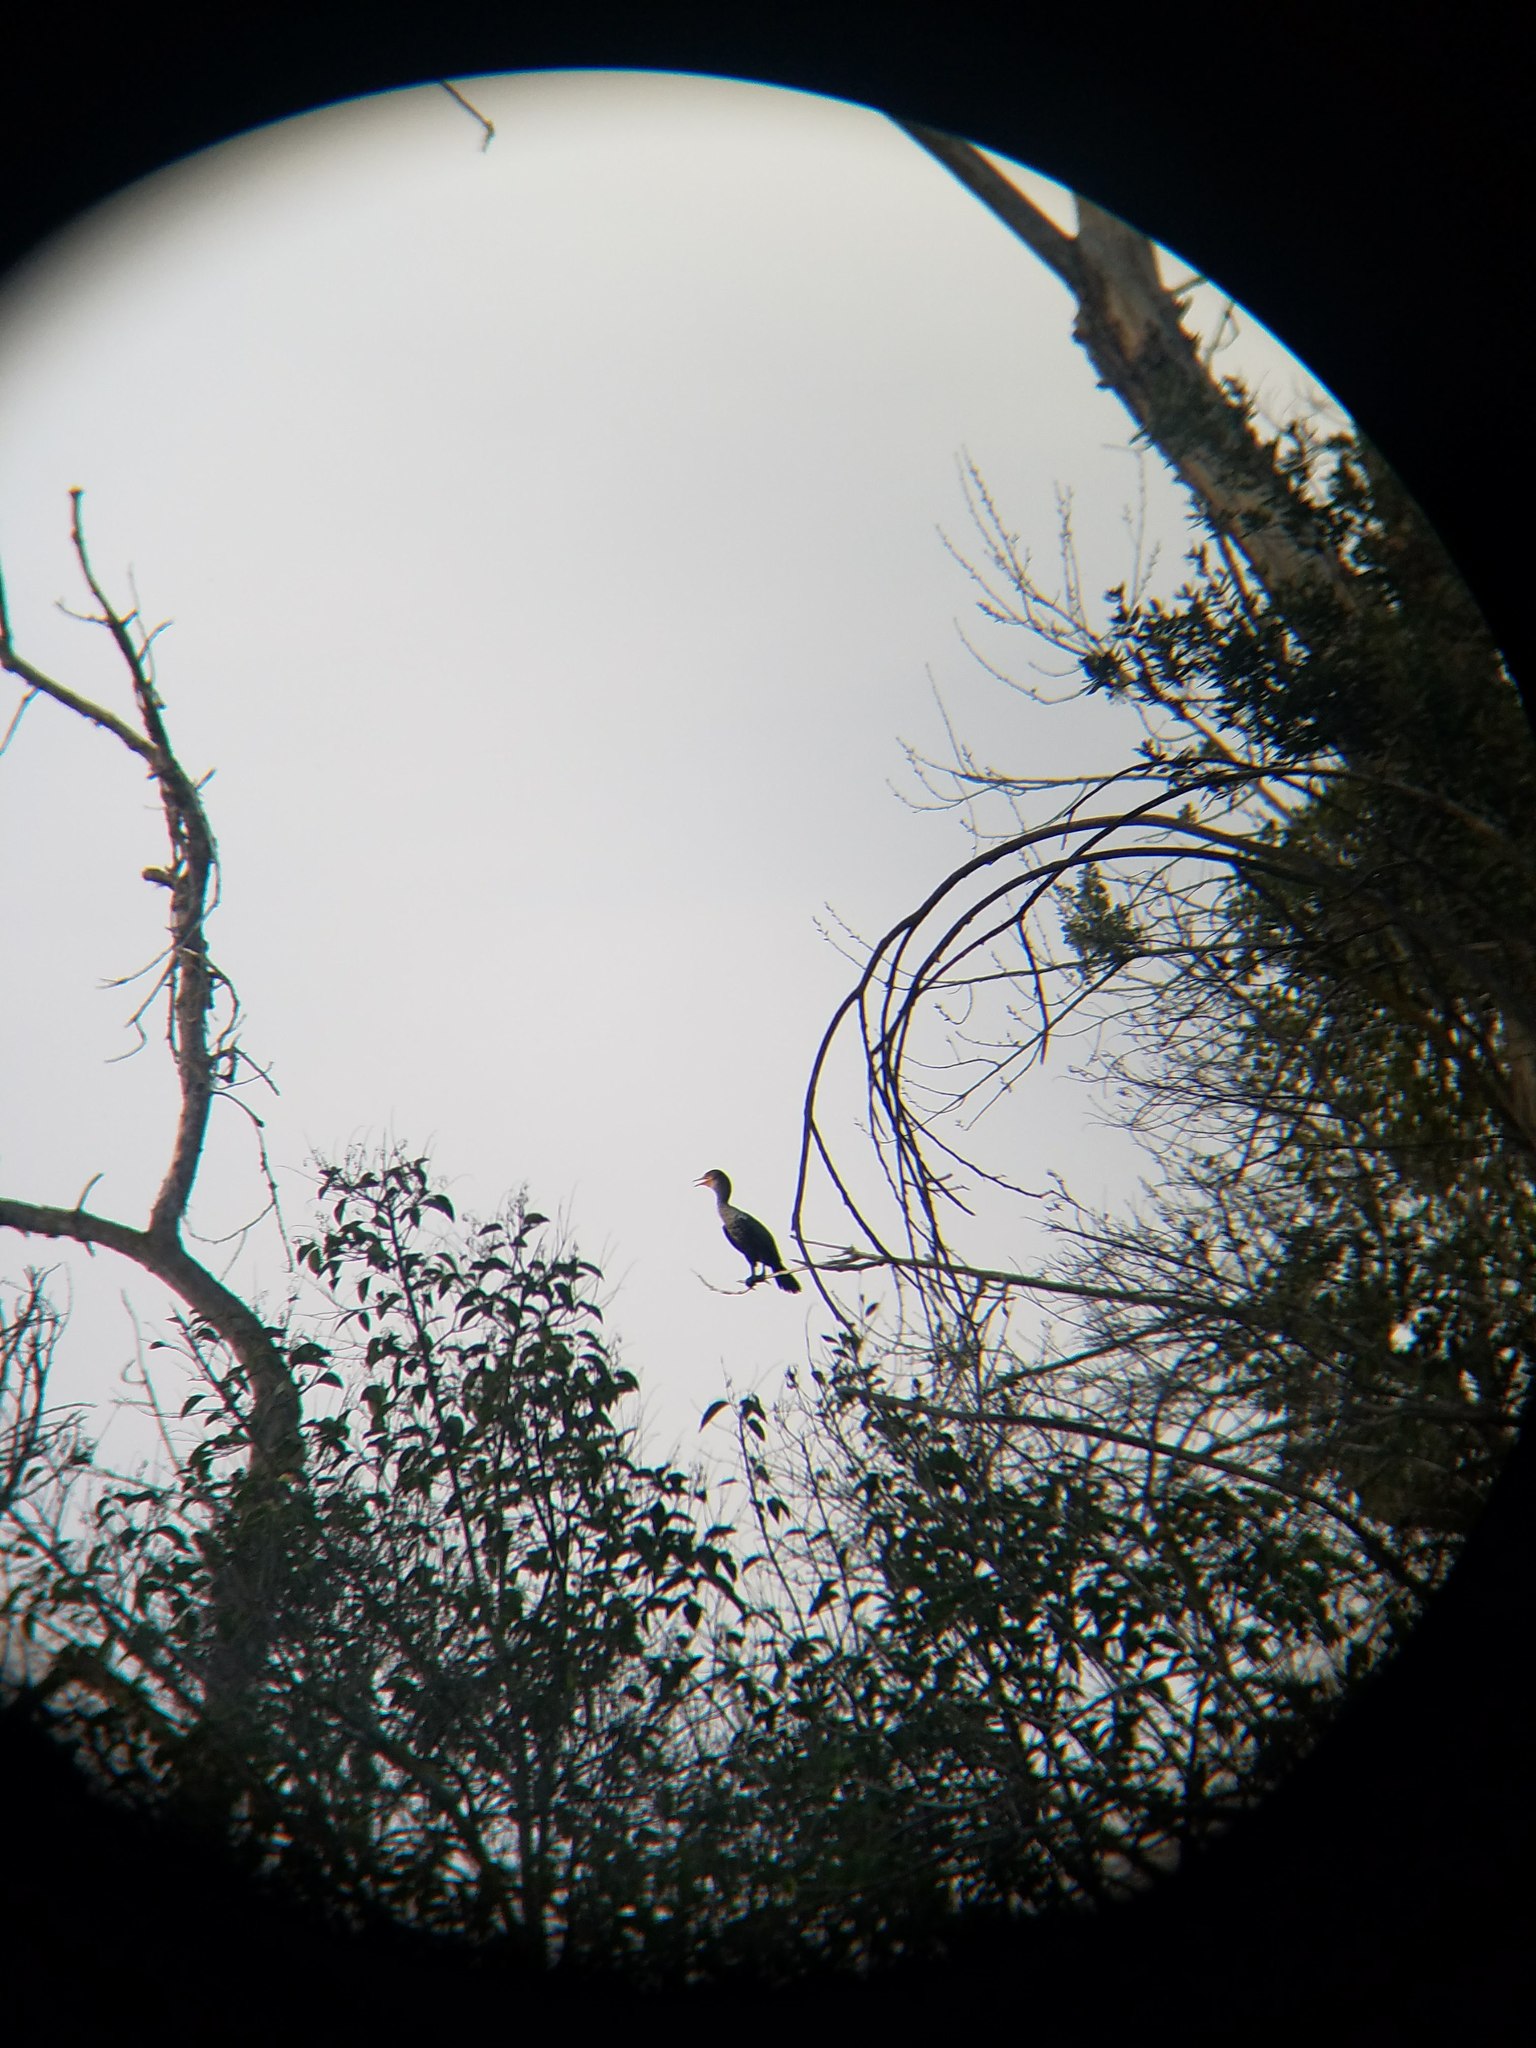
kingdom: Animalia
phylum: Chordata
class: Aves
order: Suliformes
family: Phalacrocoracidae
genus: Phalacrocorax
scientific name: Phalacrocorax auritus
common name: Double-crested cormorant
